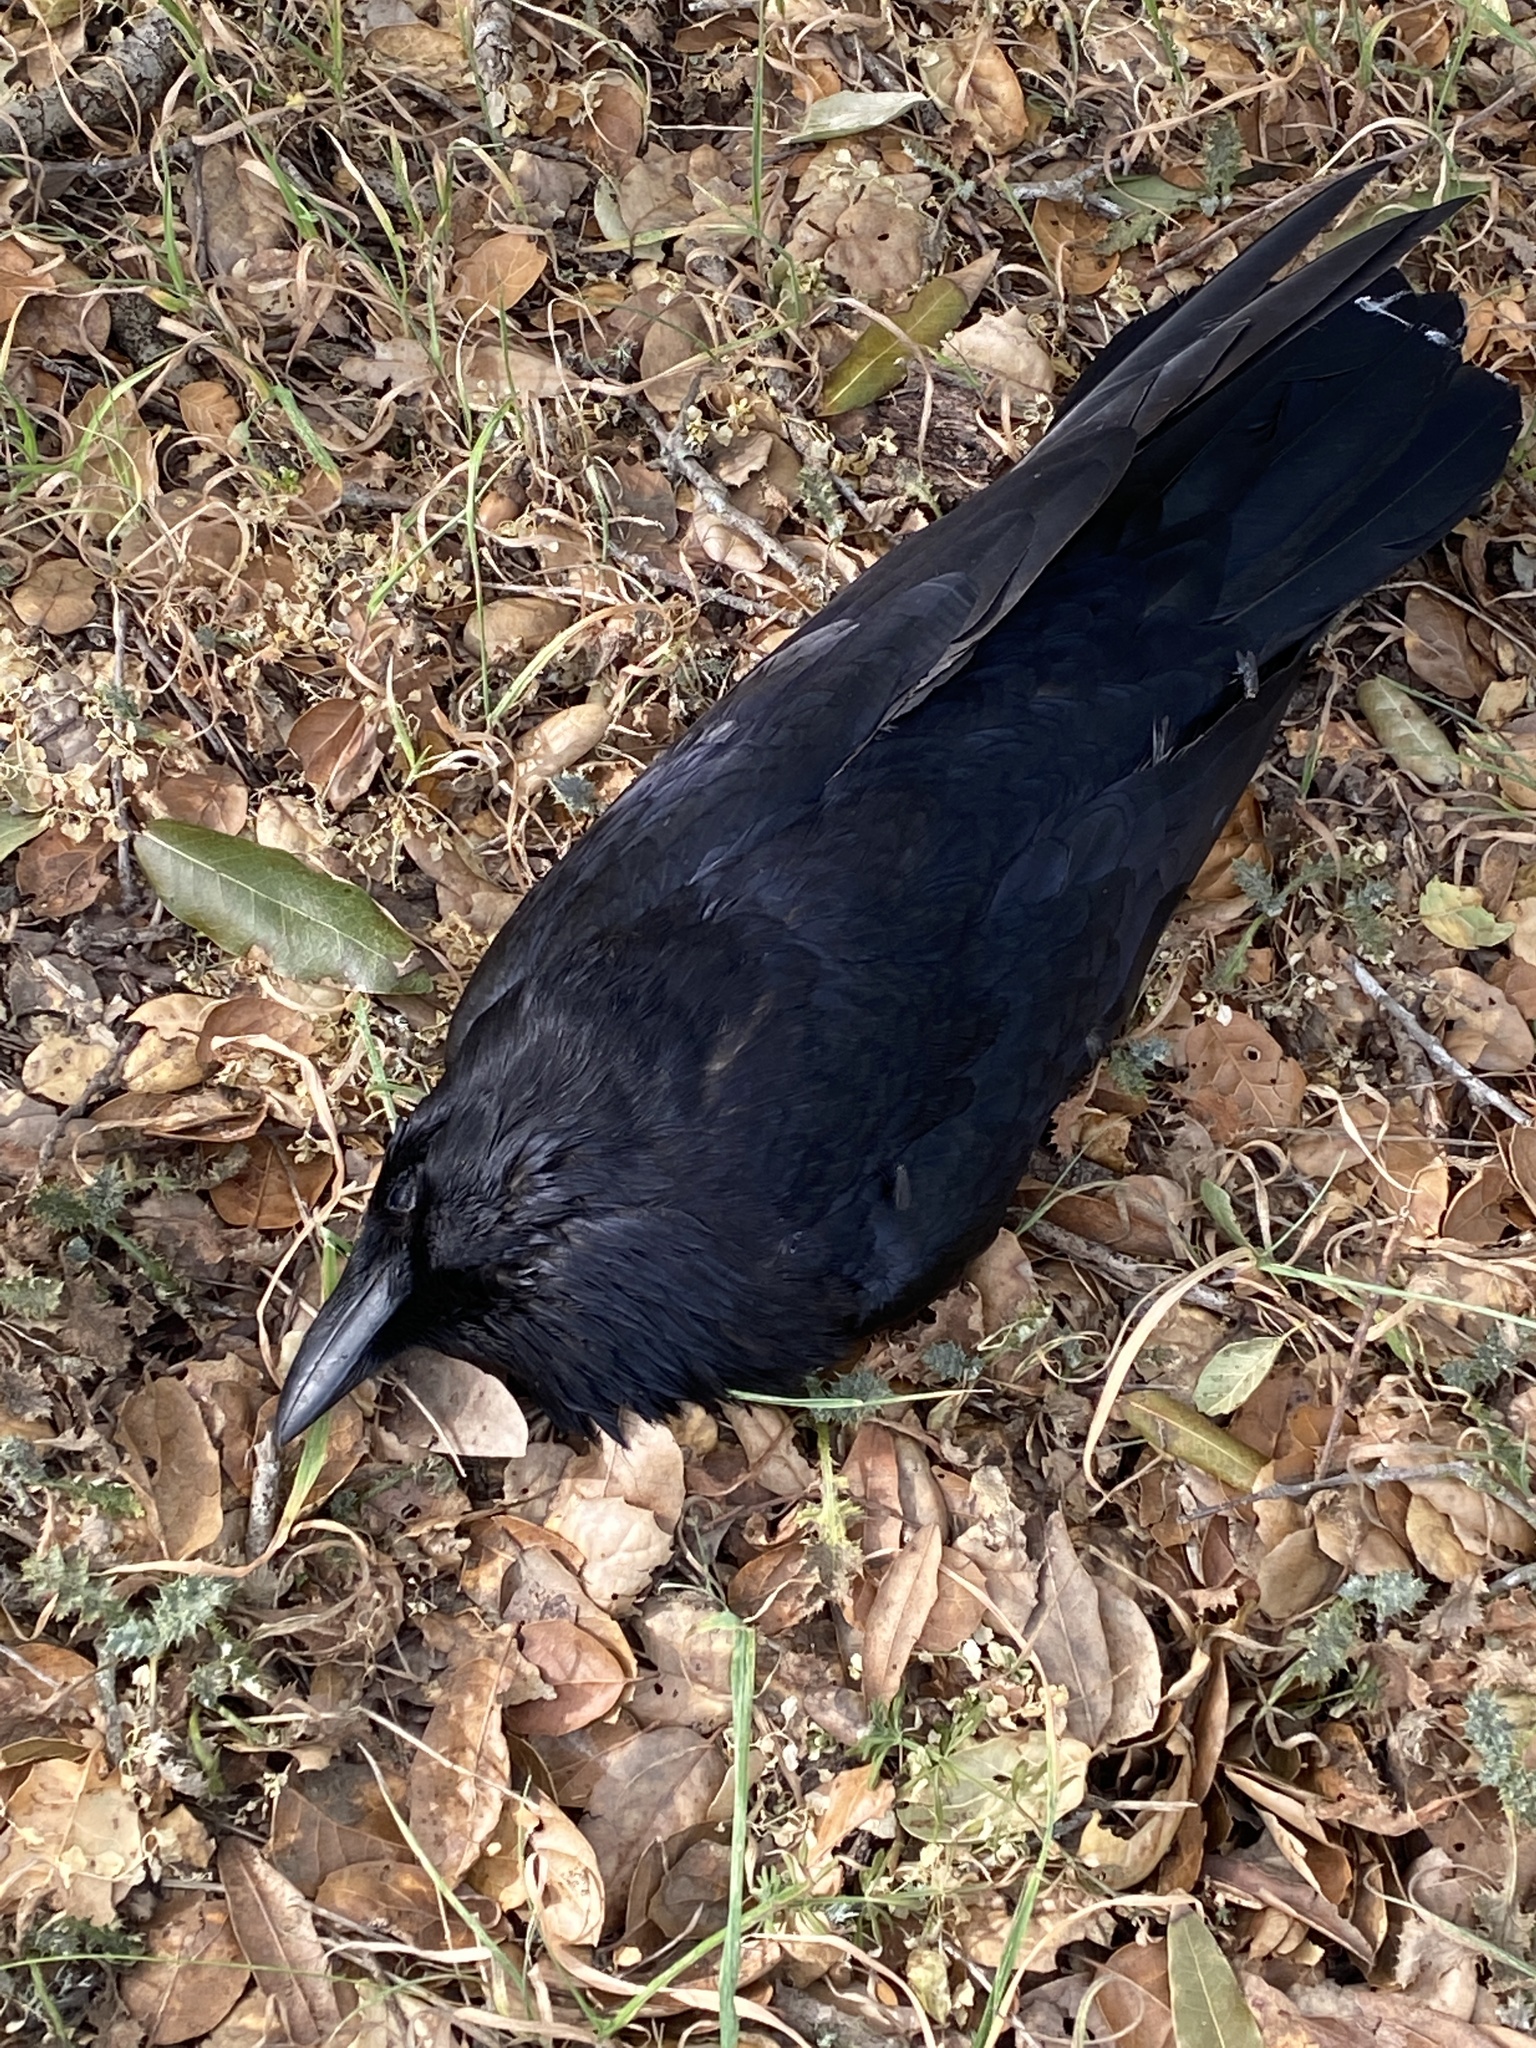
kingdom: Animalia
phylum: Chordata
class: Aves
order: Passeriformes
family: Corvidae
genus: Corvus
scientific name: Corvus corax
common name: Common raven
